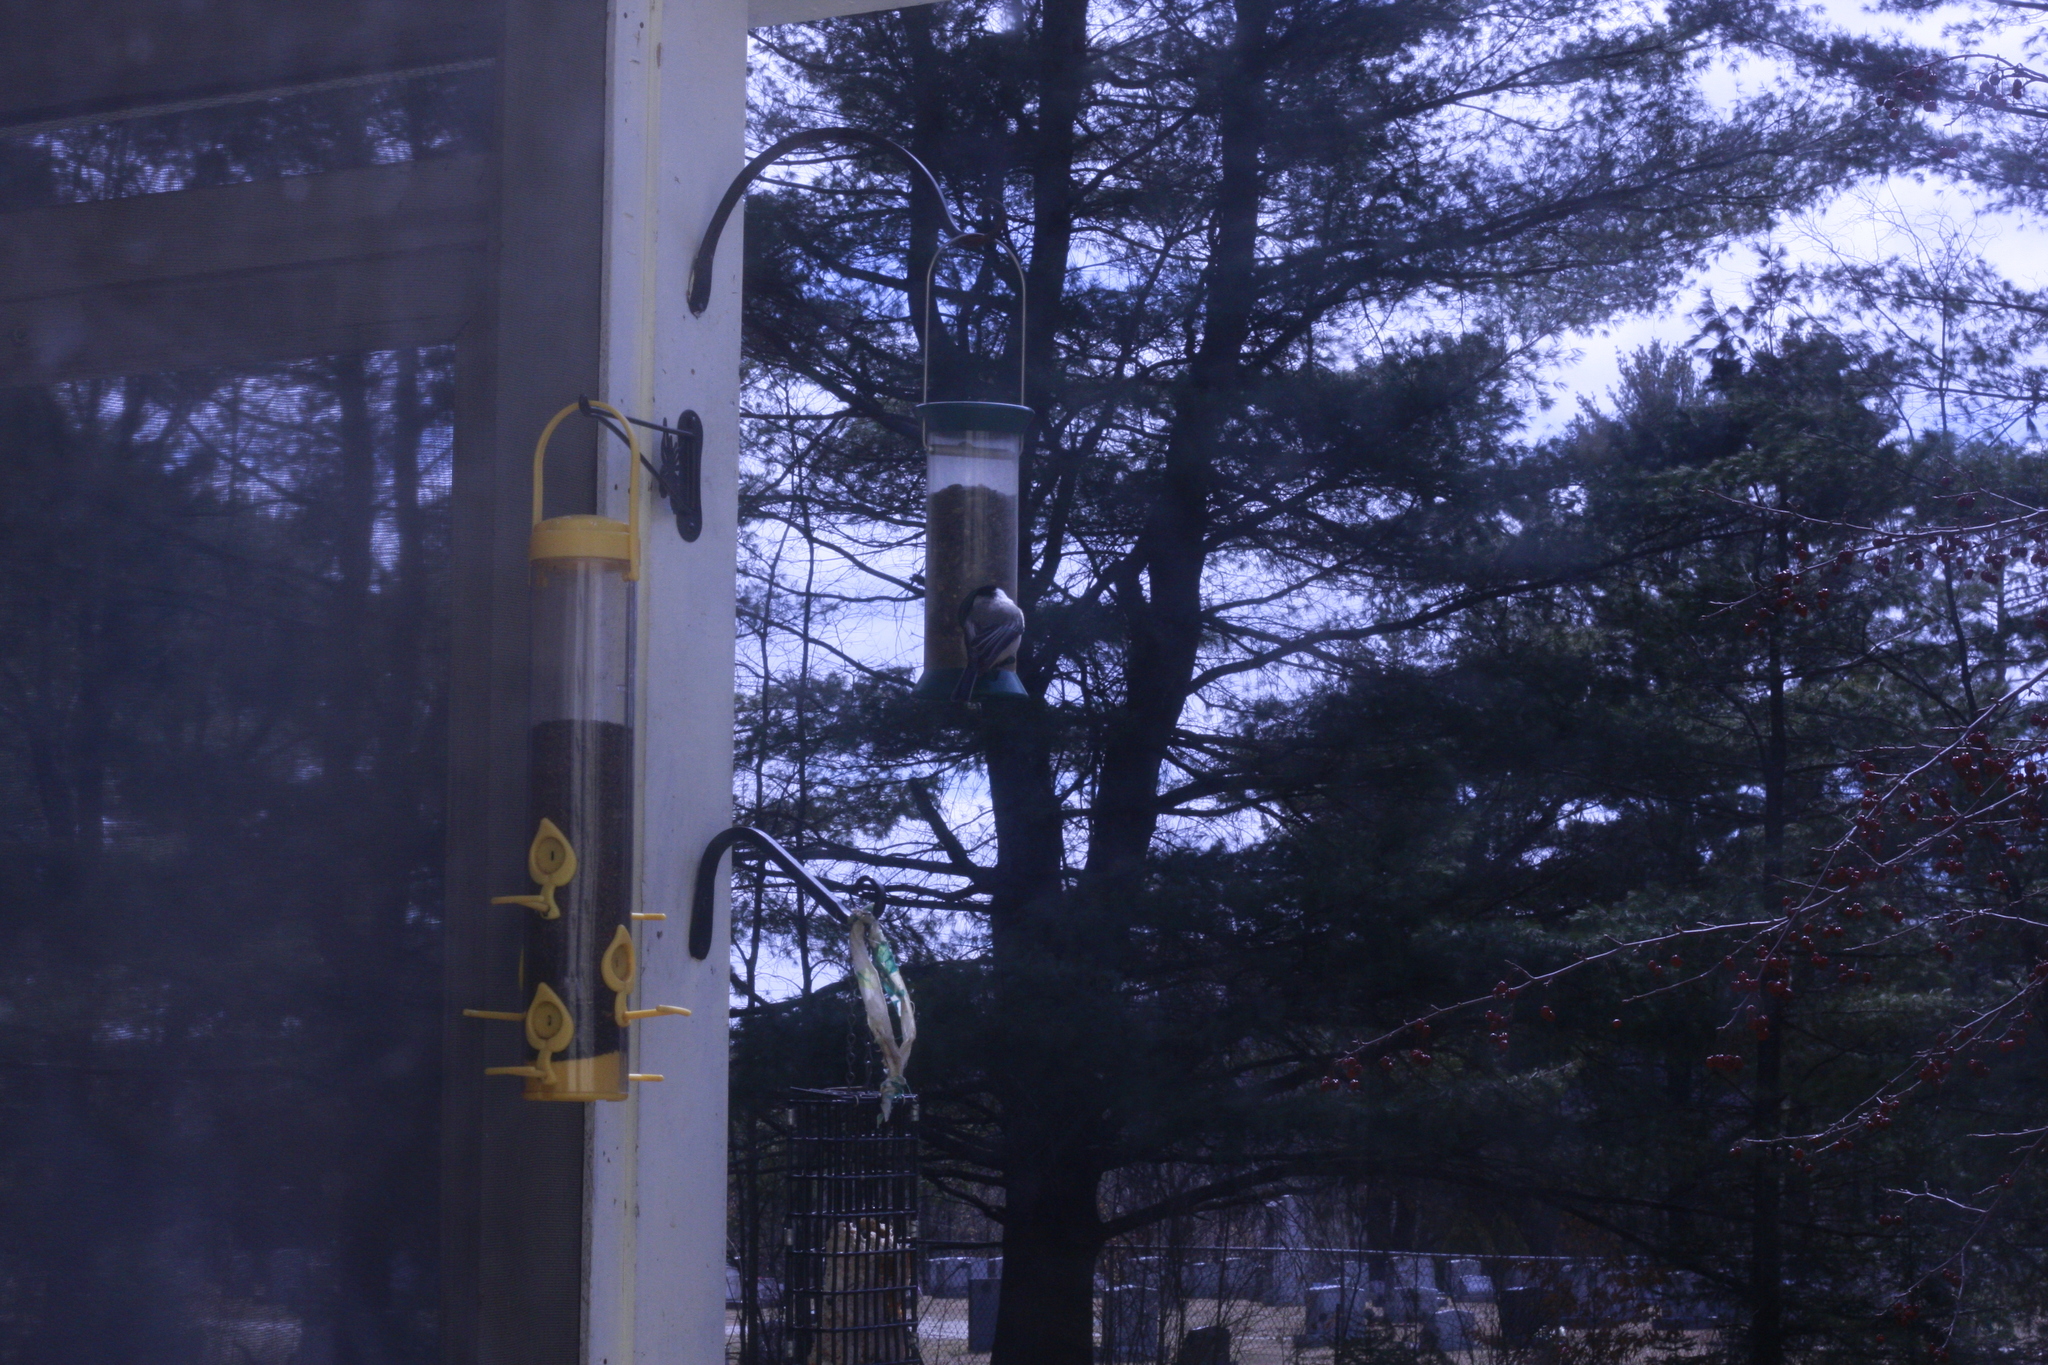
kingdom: Animalia
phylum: Chordata
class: Aves
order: Passeriformes
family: Paridae
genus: Poecile
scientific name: Poecile atricapillus
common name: Black-capped chickadee
